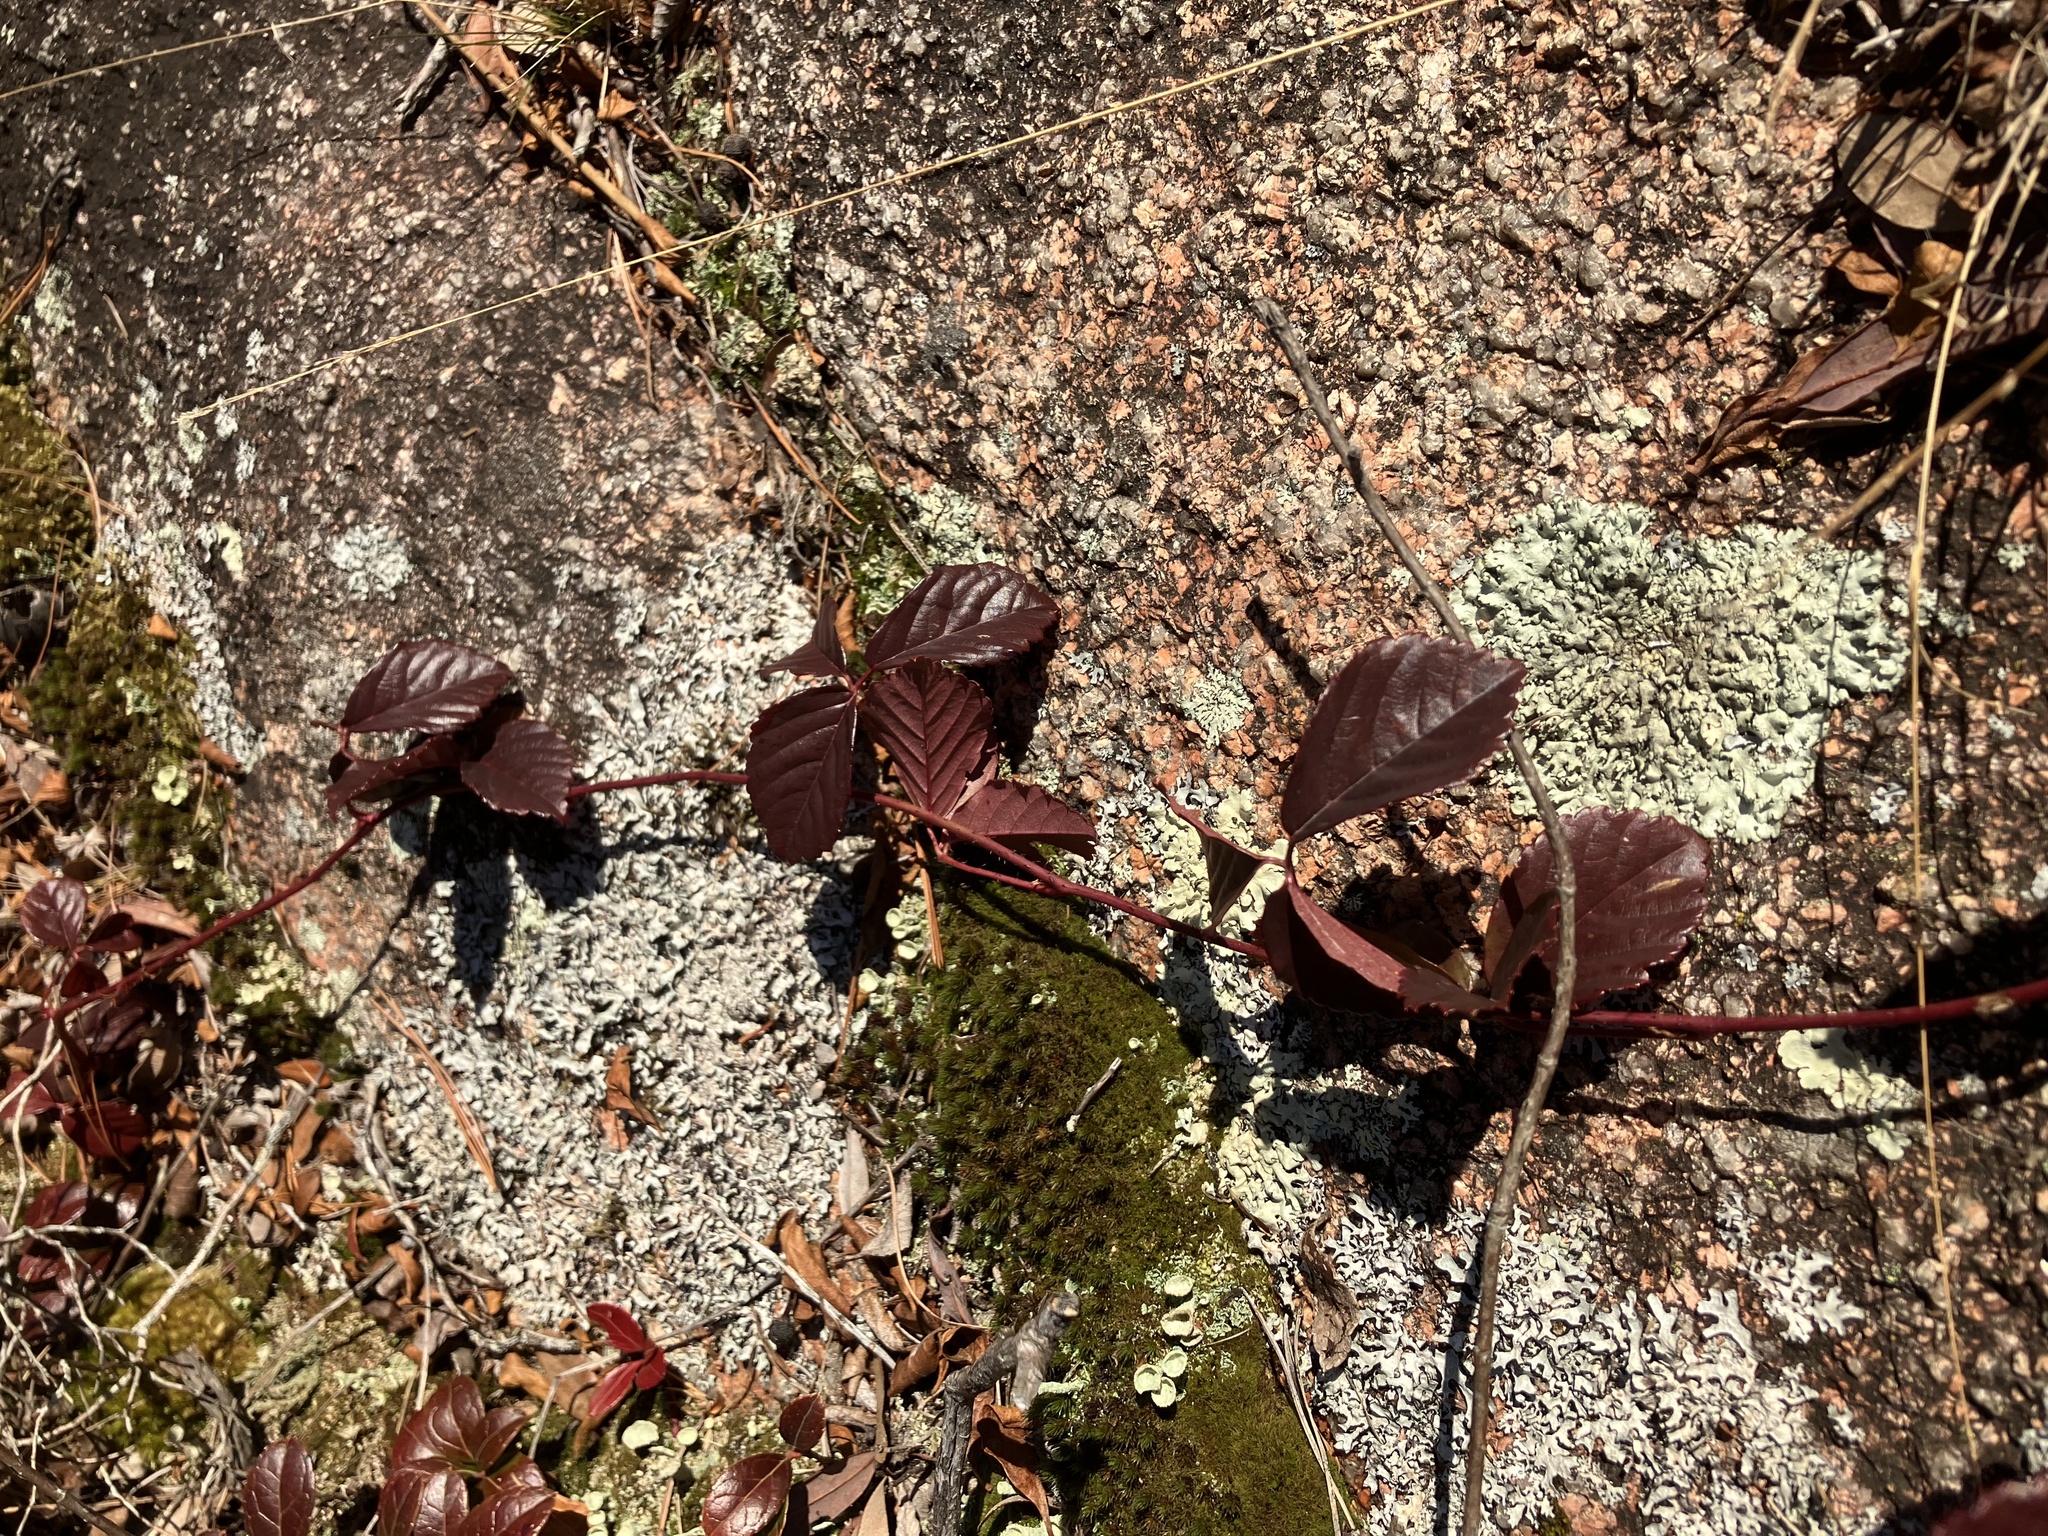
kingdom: Plantae
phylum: Tracheophyta
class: Magnoliopsida
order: Rosales
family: Rosaceae
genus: Rubus
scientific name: Rubus hispidus
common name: Running blackberry
